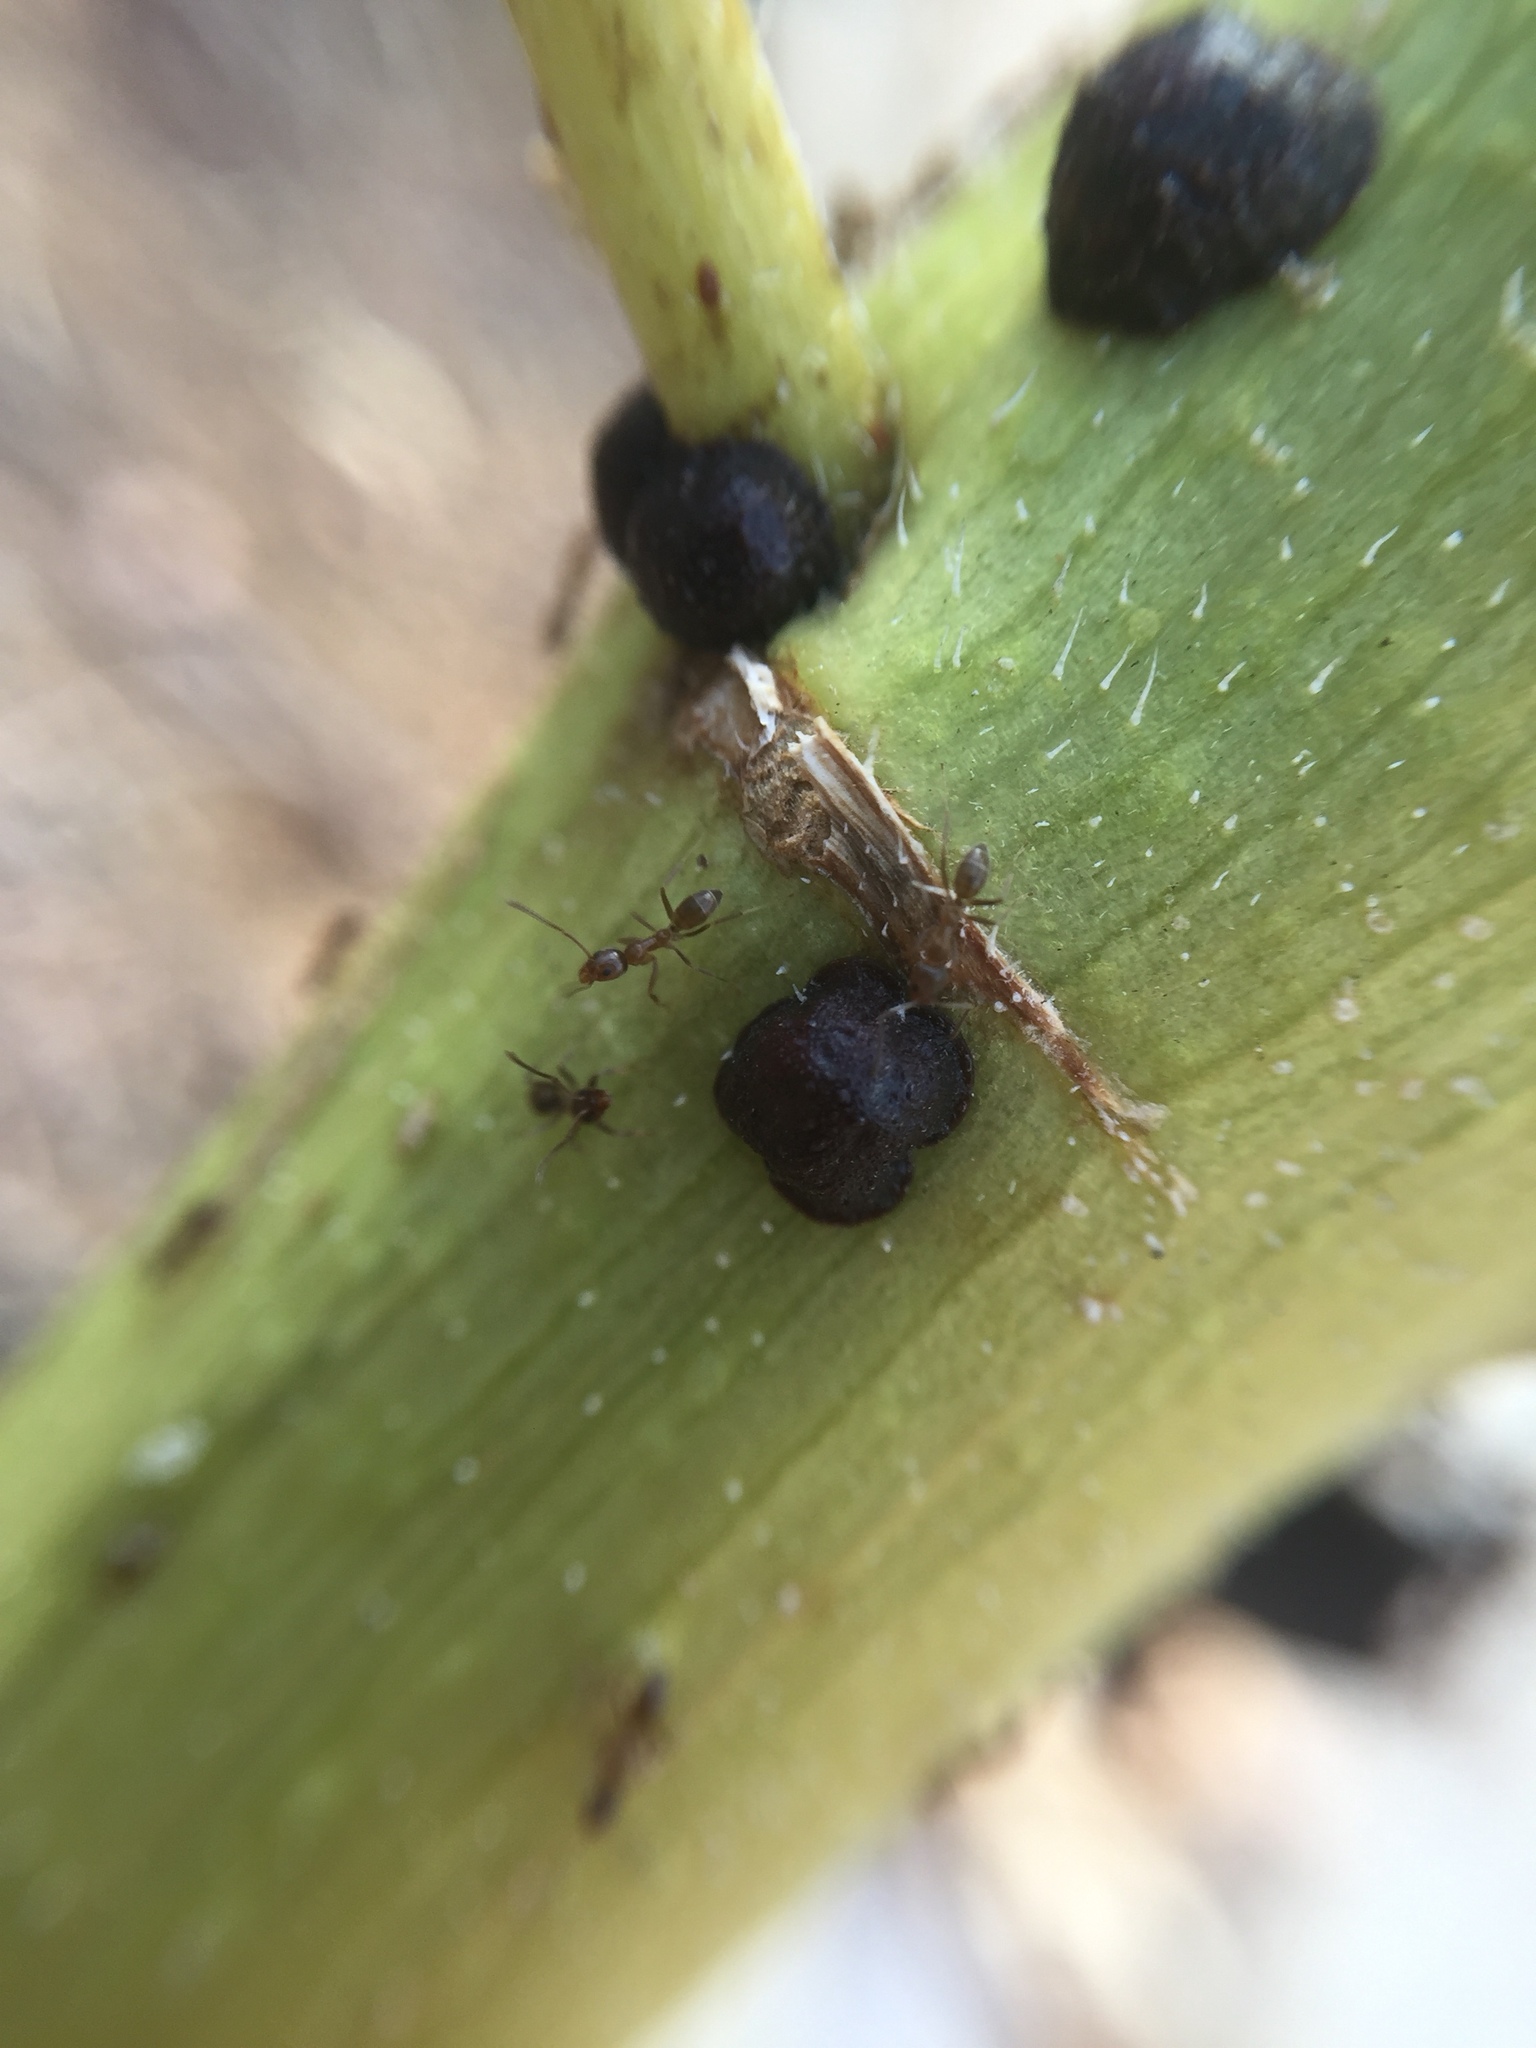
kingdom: Animalia
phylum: Arthropoda
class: Insecta
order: Hymenoptera
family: Formicidae
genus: Linepithema
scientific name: Linepithema humile
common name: Argentine ant
